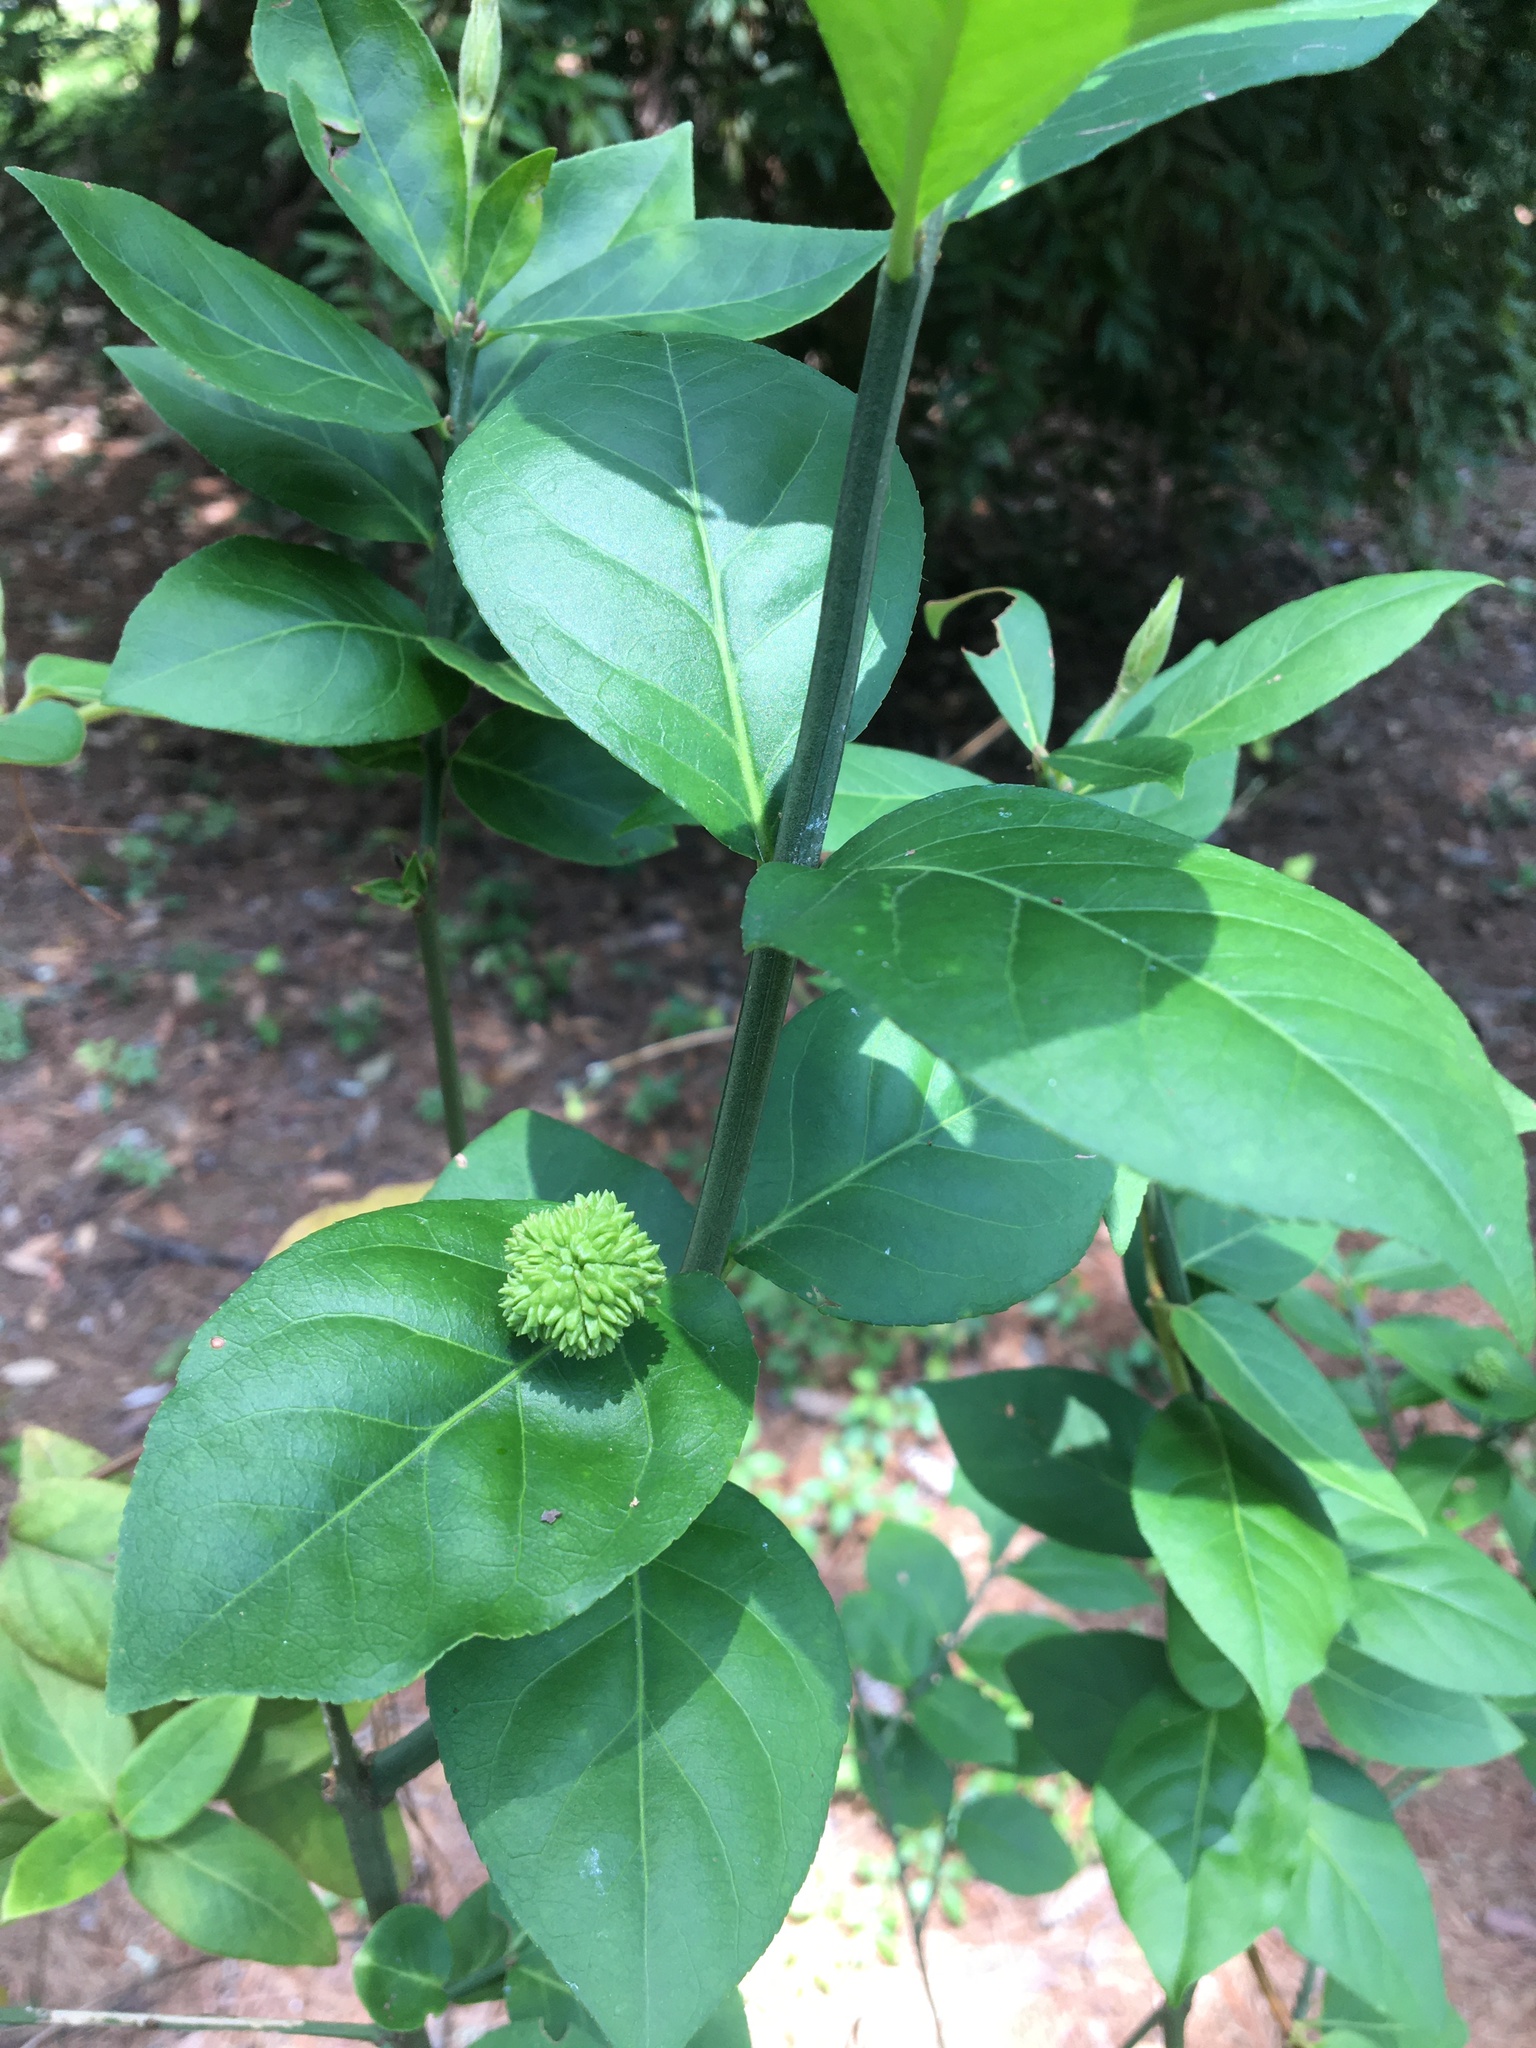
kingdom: Plantae
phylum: Tracheophyta
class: Magnoliopsida
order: Celastrales
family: Celastraceae
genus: Euonymus
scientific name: Euonymus americanus
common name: Bursting-heart
